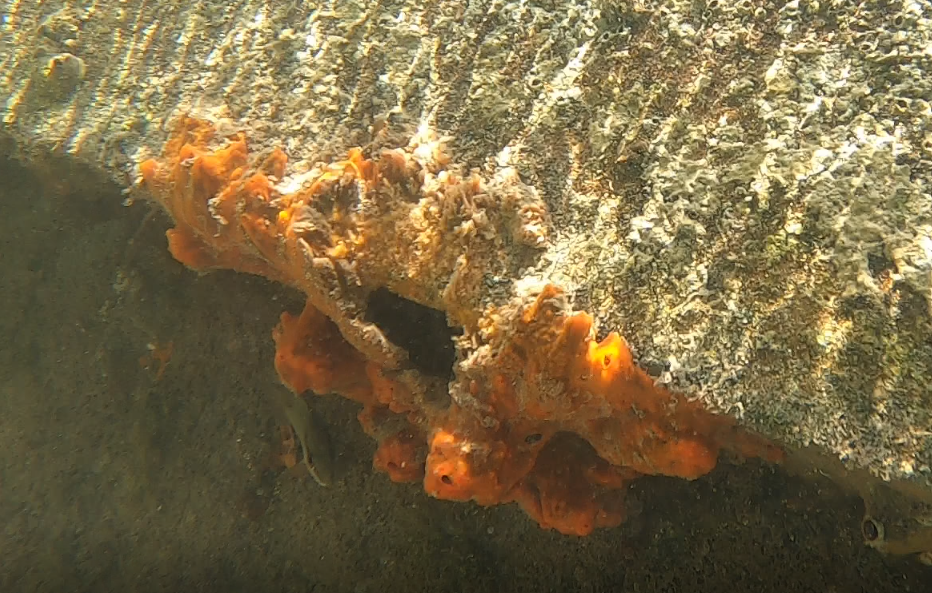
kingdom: Animalia
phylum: Porifera
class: Demospongiae
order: Poecilosclerida
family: Tedaniidae
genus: Tedania
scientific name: Tedania ignis
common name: Sponge
